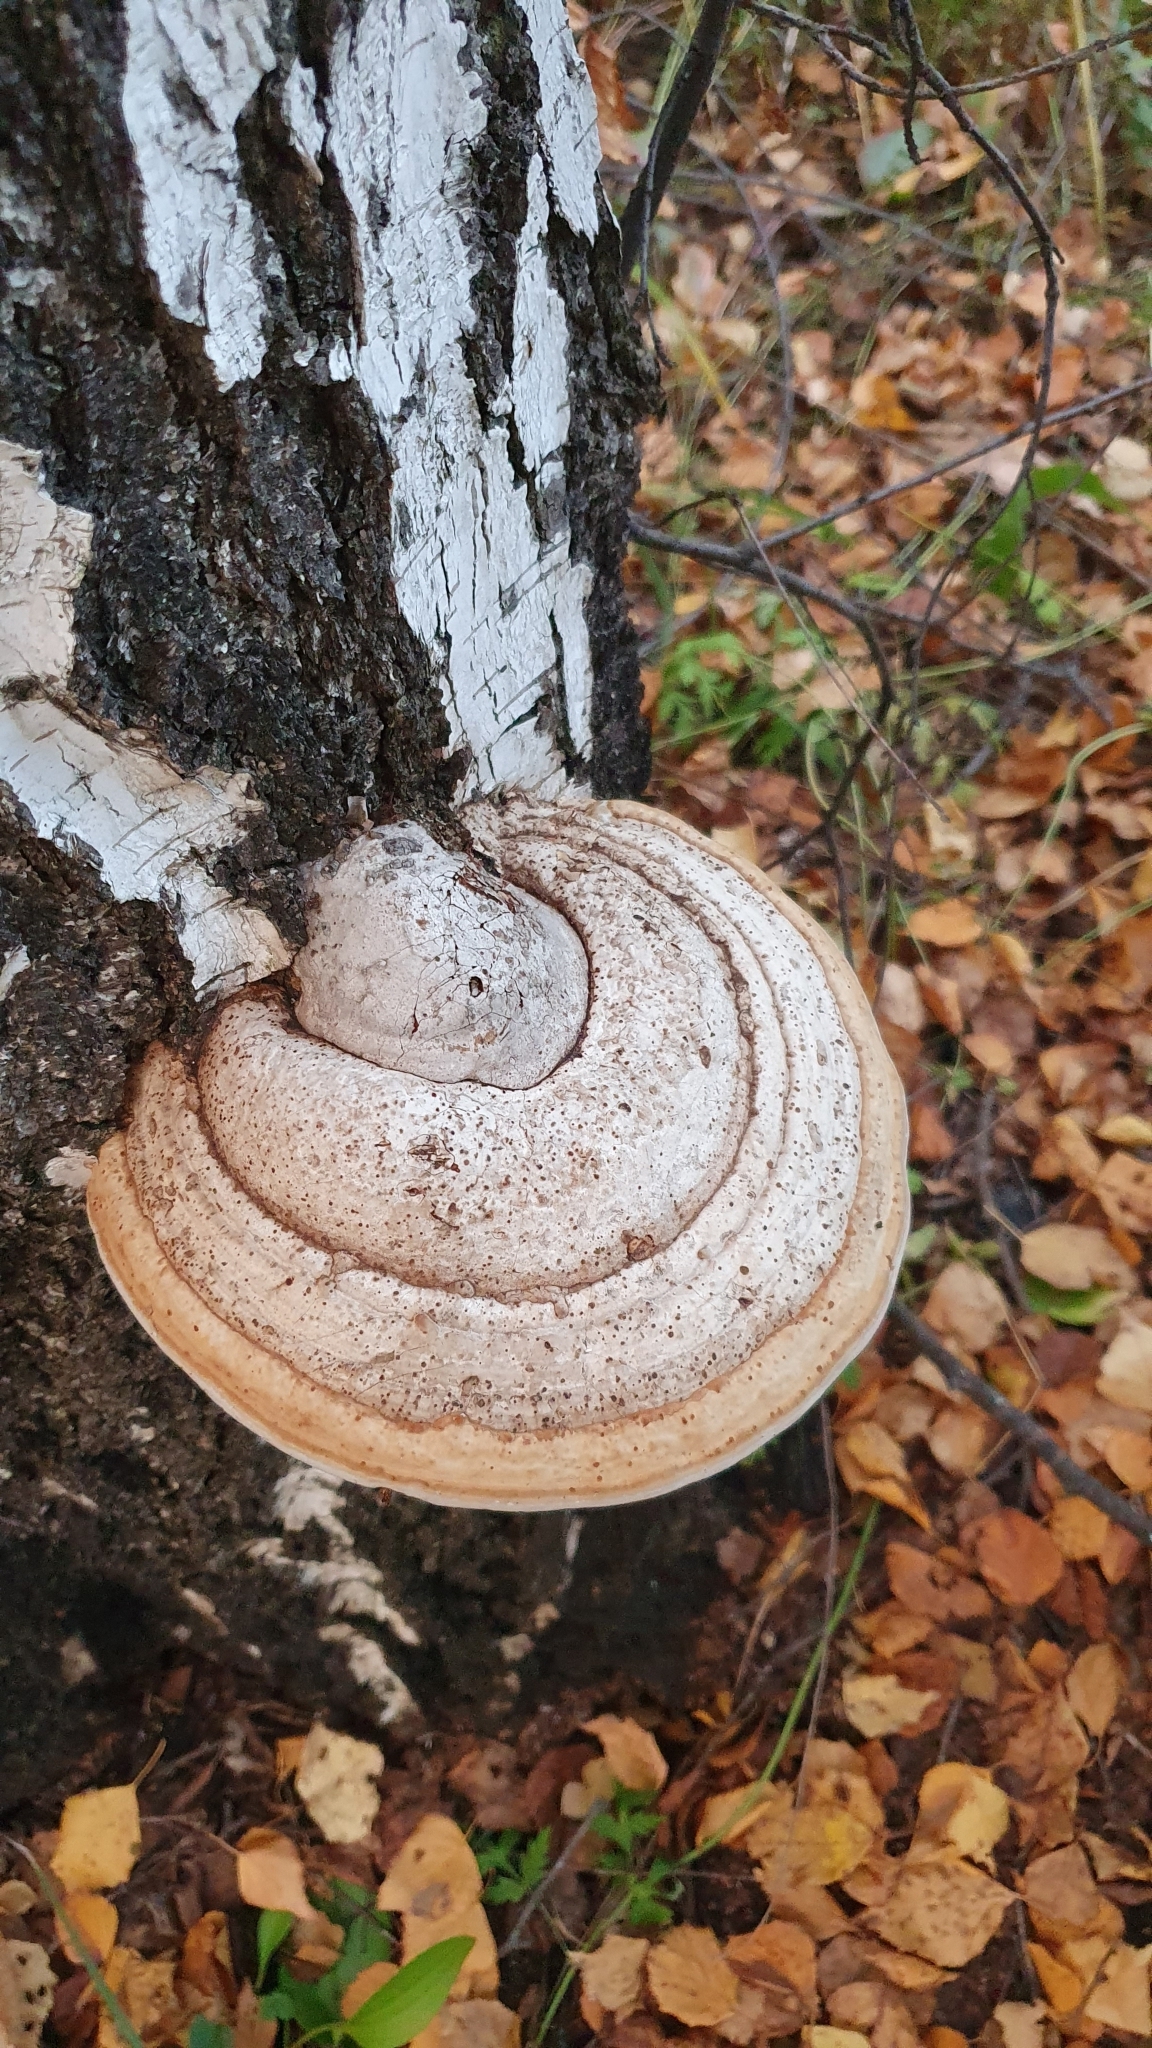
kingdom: Fungi
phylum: Basidiomycota
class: Agaricomycetes
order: Polyporales
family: Polyporaceae
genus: Fomes
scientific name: Fomes fomentarius
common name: Hoof fungus
